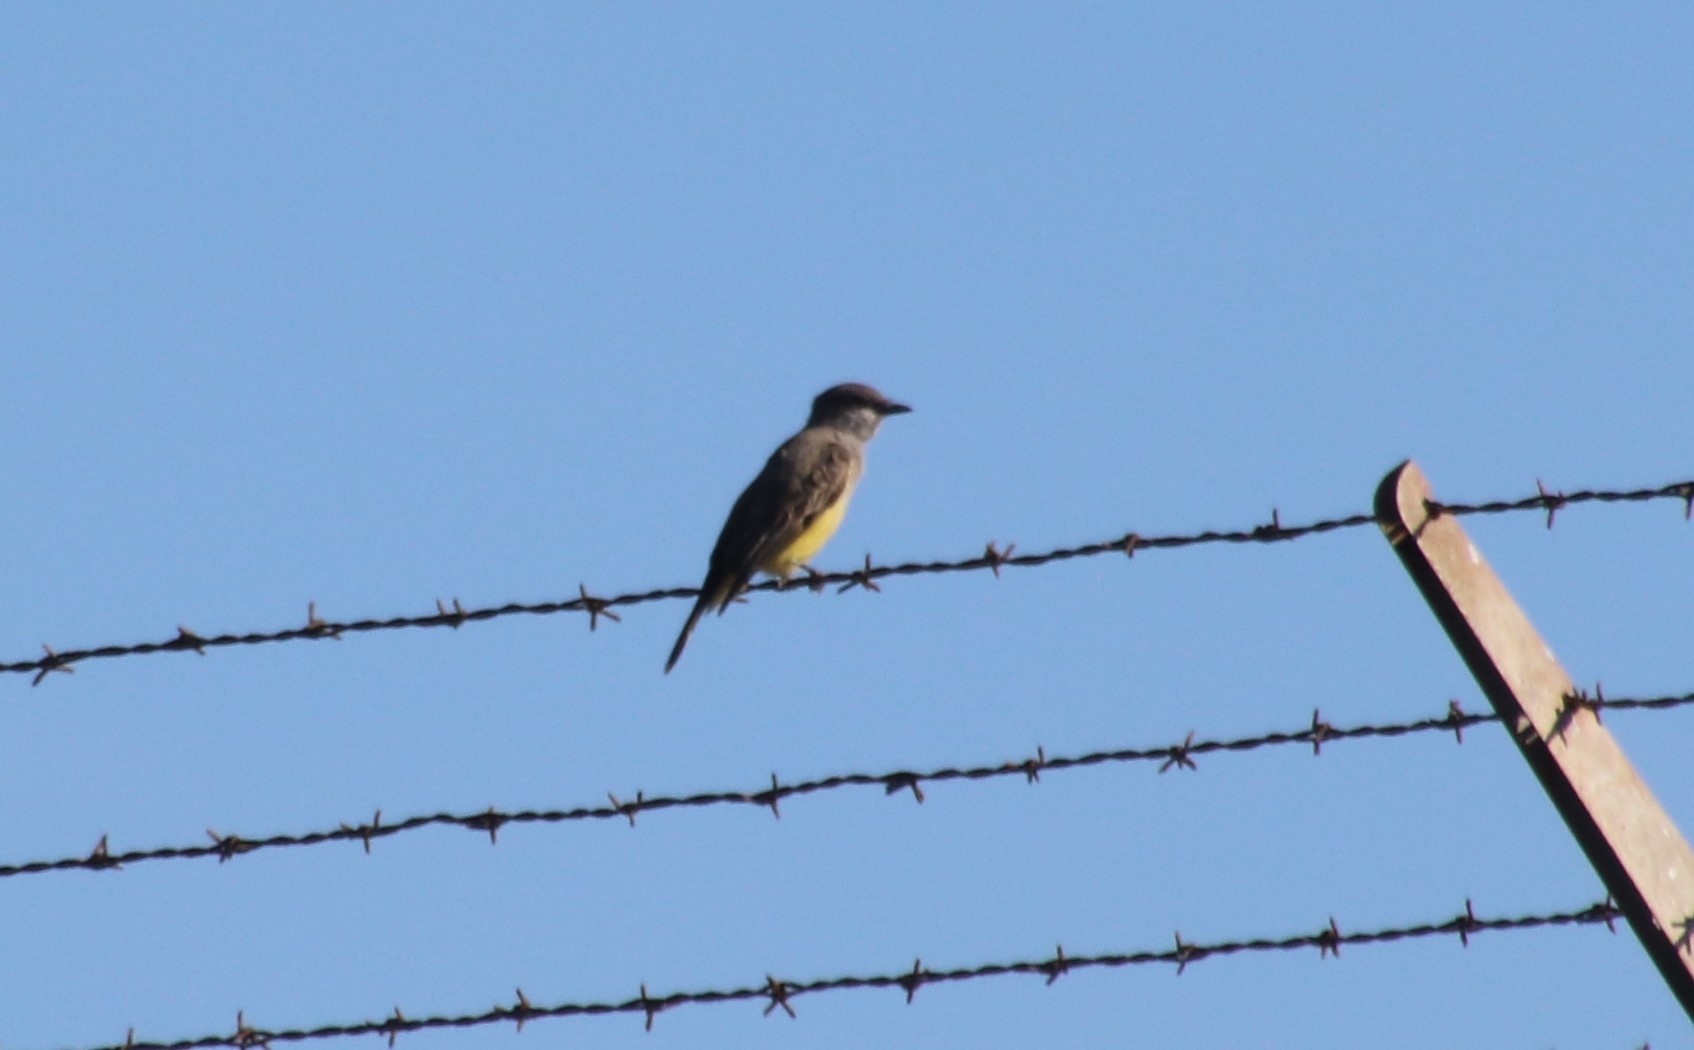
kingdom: Animalia
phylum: Chordata
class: Aves
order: Passeriformes
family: Tyrannidae
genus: Tyrannus
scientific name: Tyrannus vociferans
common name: Cassin's kingbird
